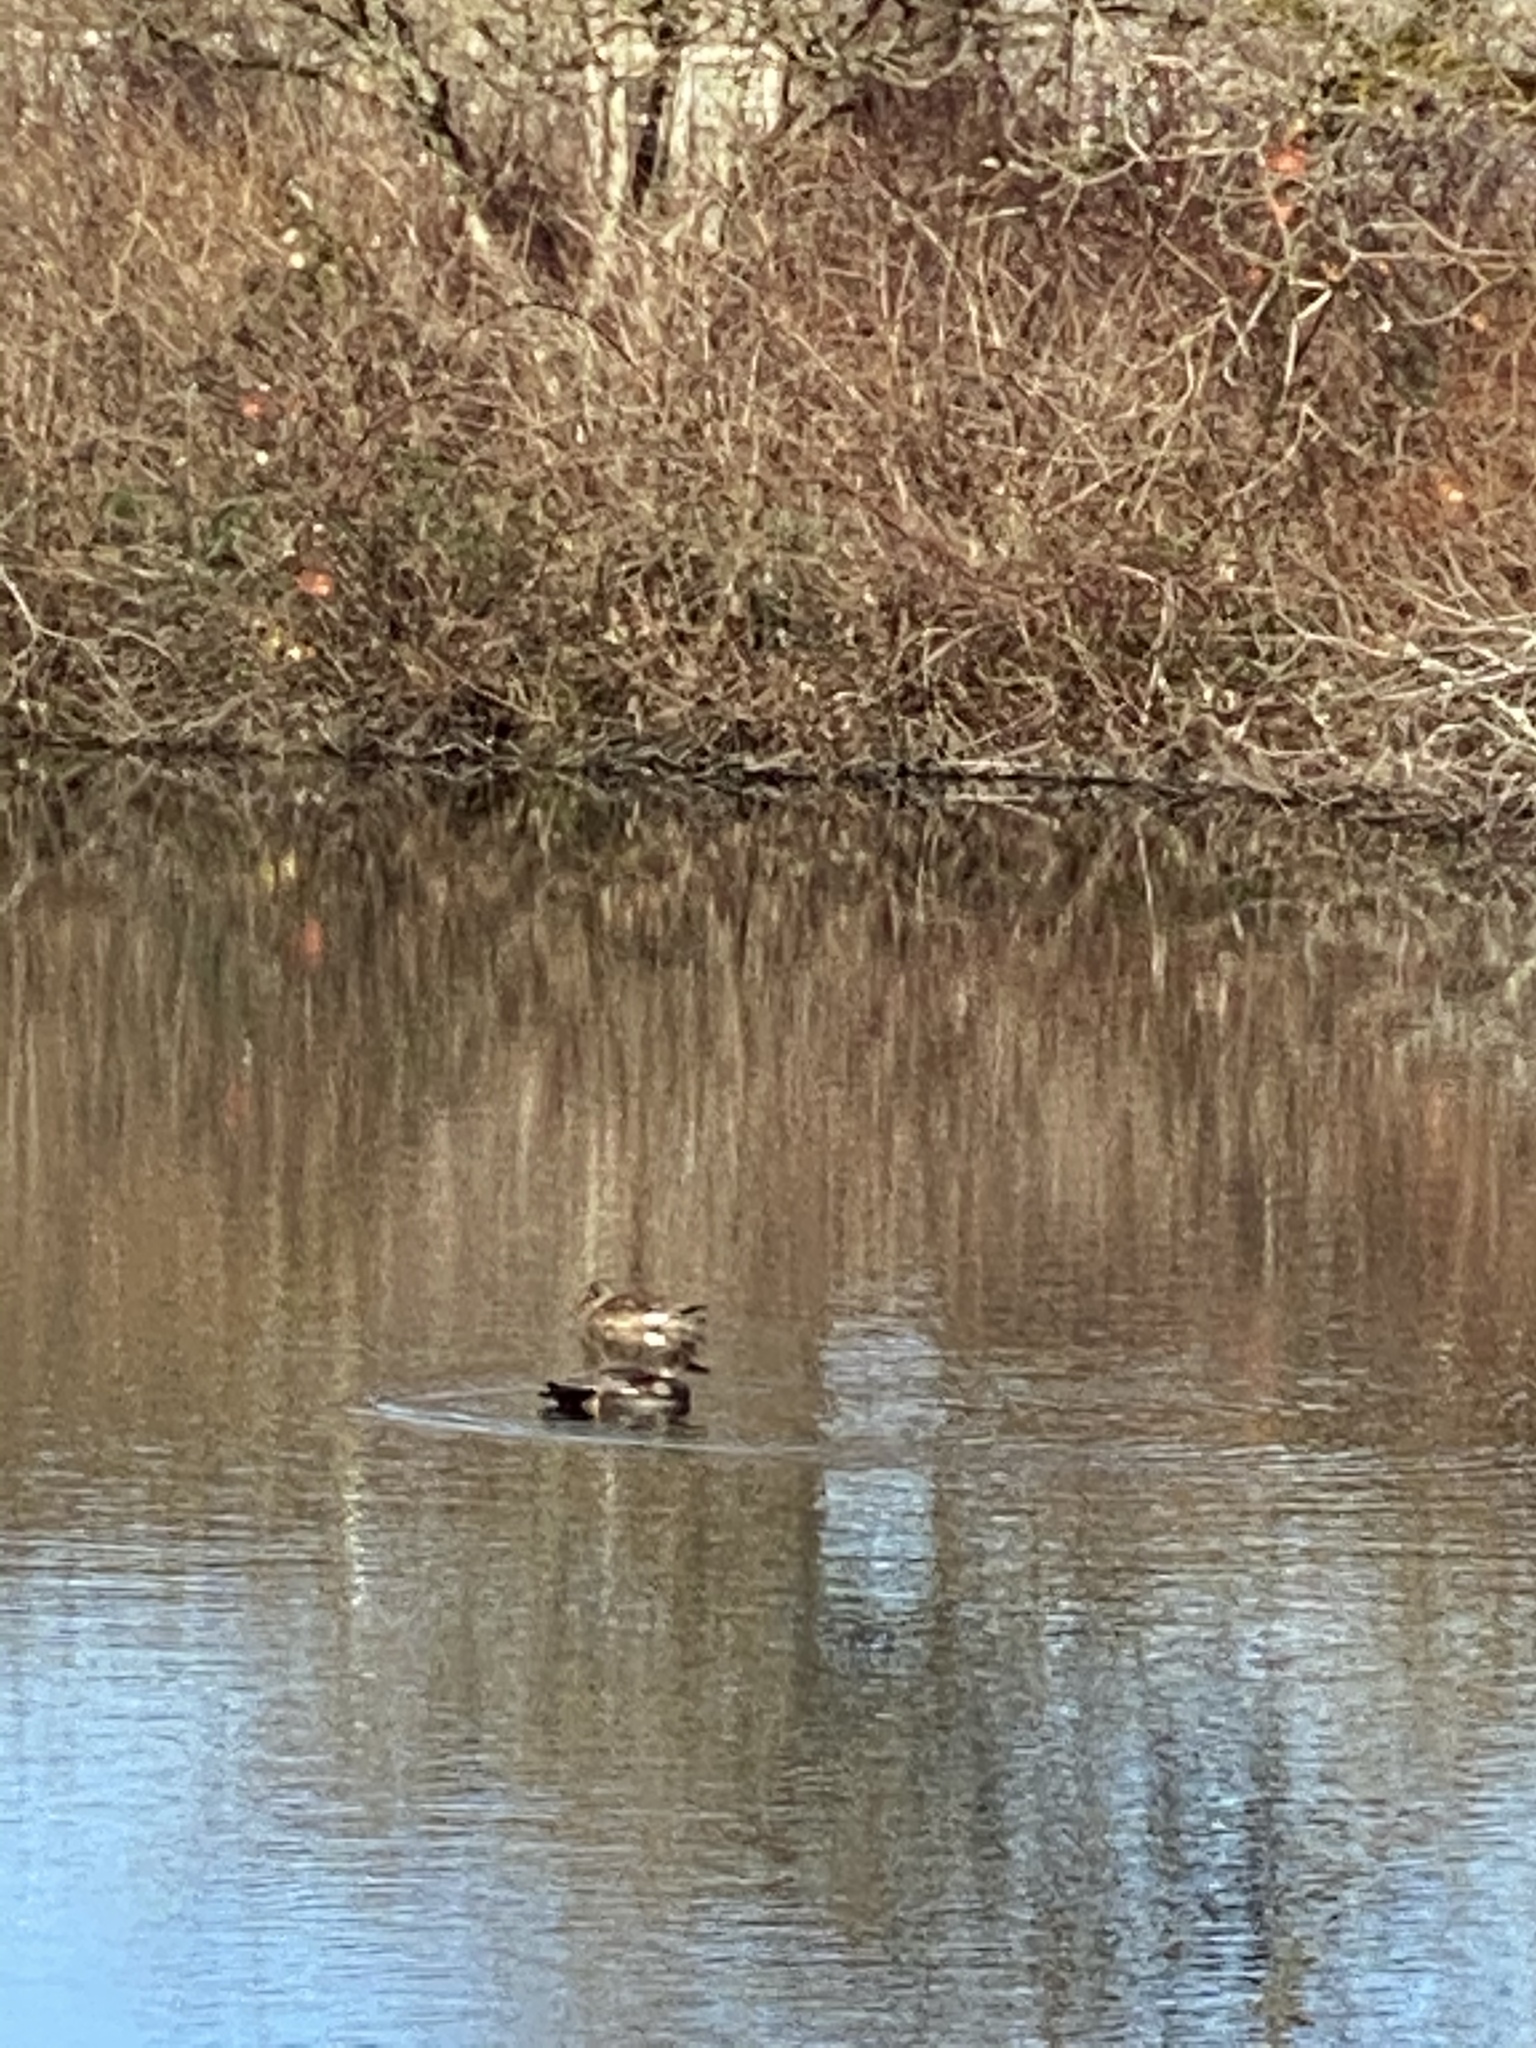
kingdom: Animalia
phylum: Chordata
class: Aves
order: Anseriformes
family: Anatidae
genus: Mareca
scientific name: Mareca strepera
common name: Gadwall
